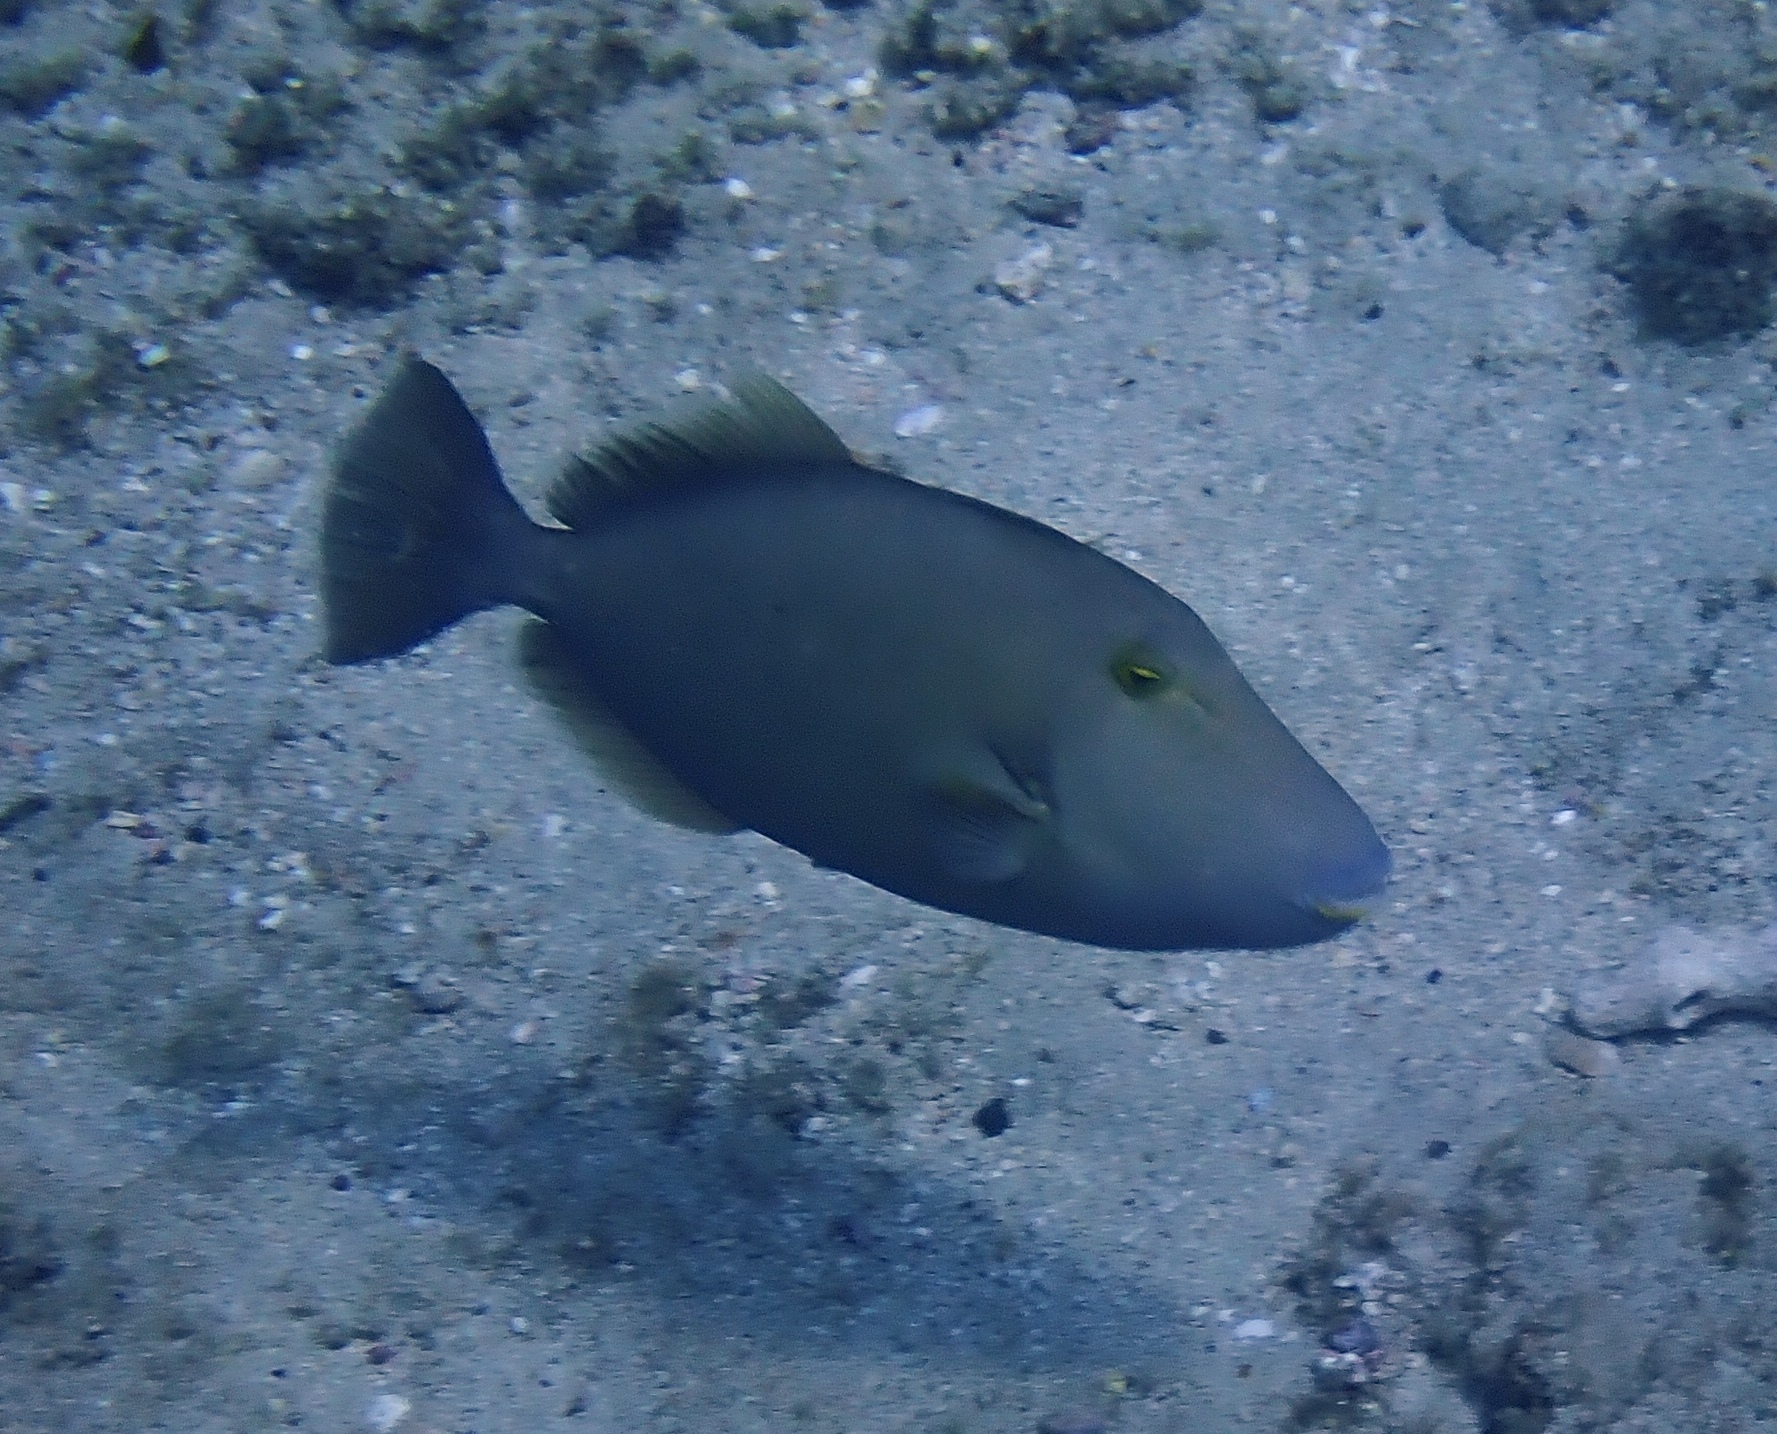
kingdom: Animalia
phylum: Chordata
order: Tetraodontiformes
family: Balistidae
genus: Sufflamen
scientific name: Sufflamen fraenatum
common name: Bridle triggerfish
